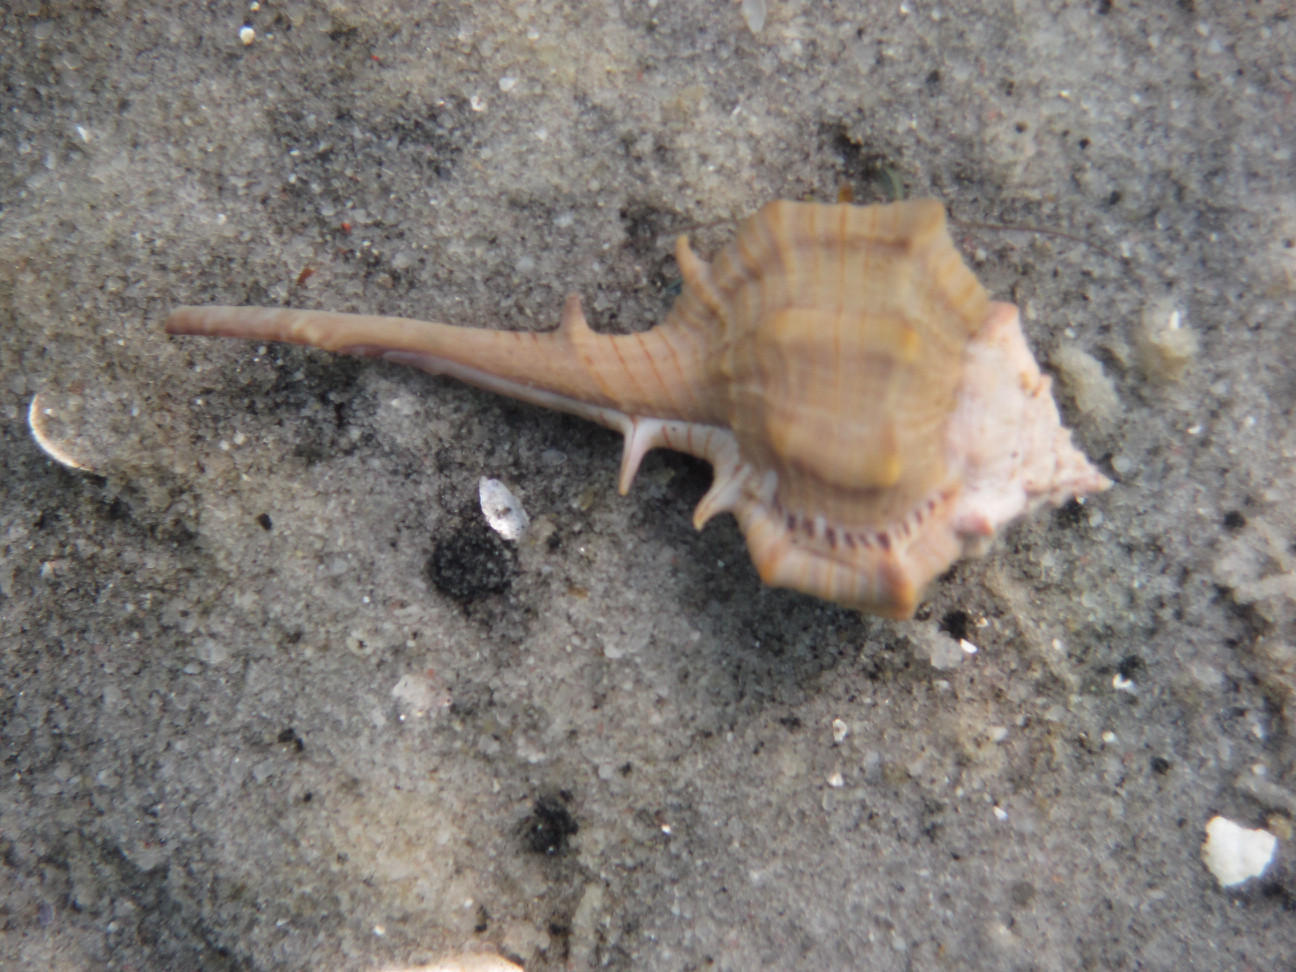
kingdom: Animalia
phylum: Mollusca
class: Gastropoda
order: Neogastropoda
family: Muricidae
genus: Murex
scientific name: Murex brevispina
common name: Brevispined murex
